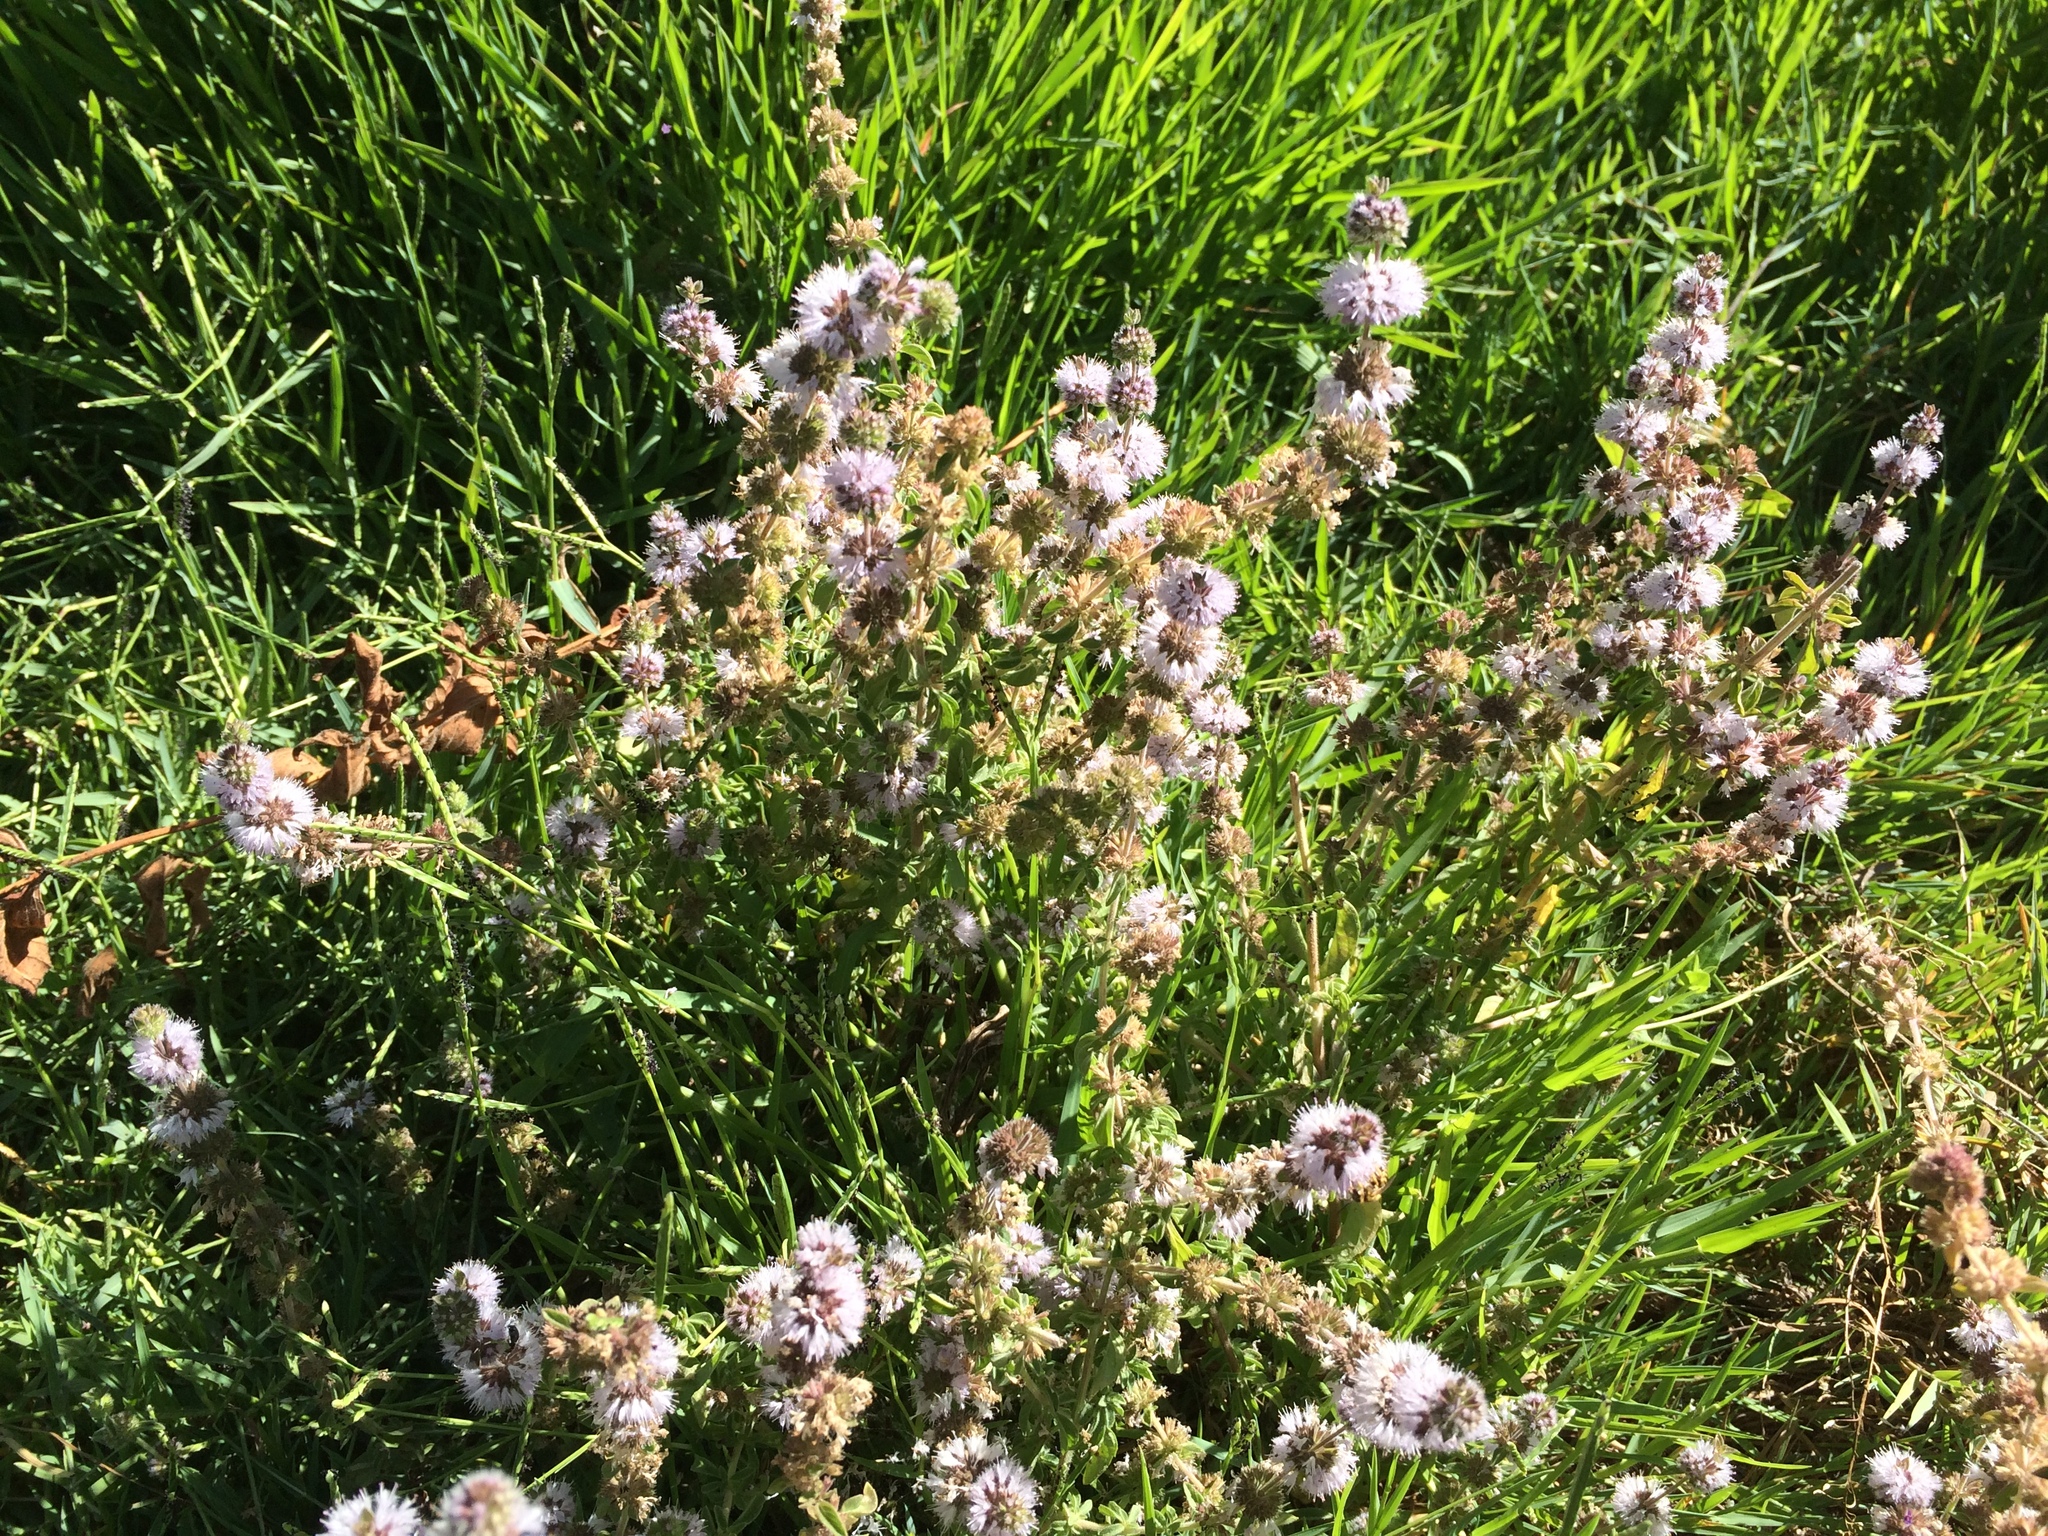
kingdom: Plantae
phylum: Tracheophyta
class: Magnoliopsida
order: Lamiales
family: Lamiaceae
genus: Mentha
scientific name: Mentha pulegium
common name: Pennyroyal
